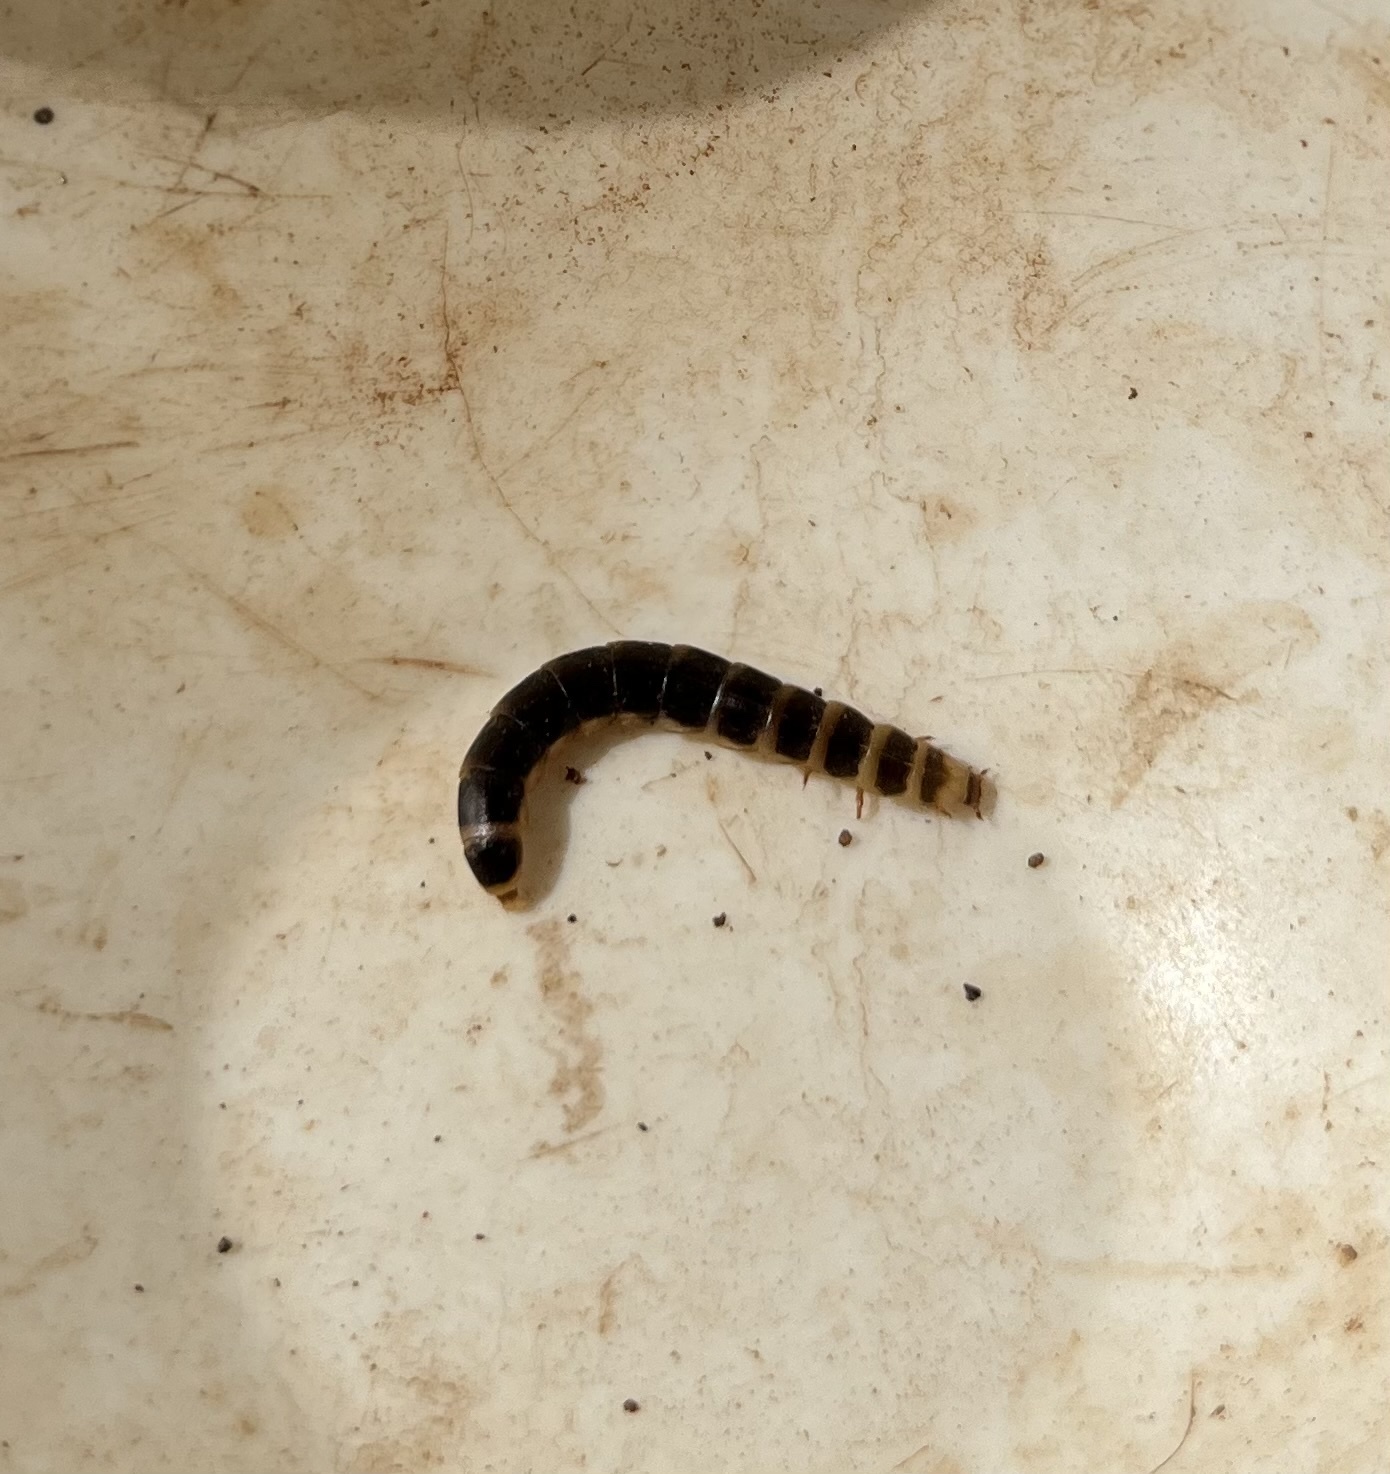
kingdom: Animalia
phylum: Arthropoda
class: Insecta
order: Coleoptera
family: Phengodidae
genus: Zarhipis
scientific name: Zarhipis integripennis
